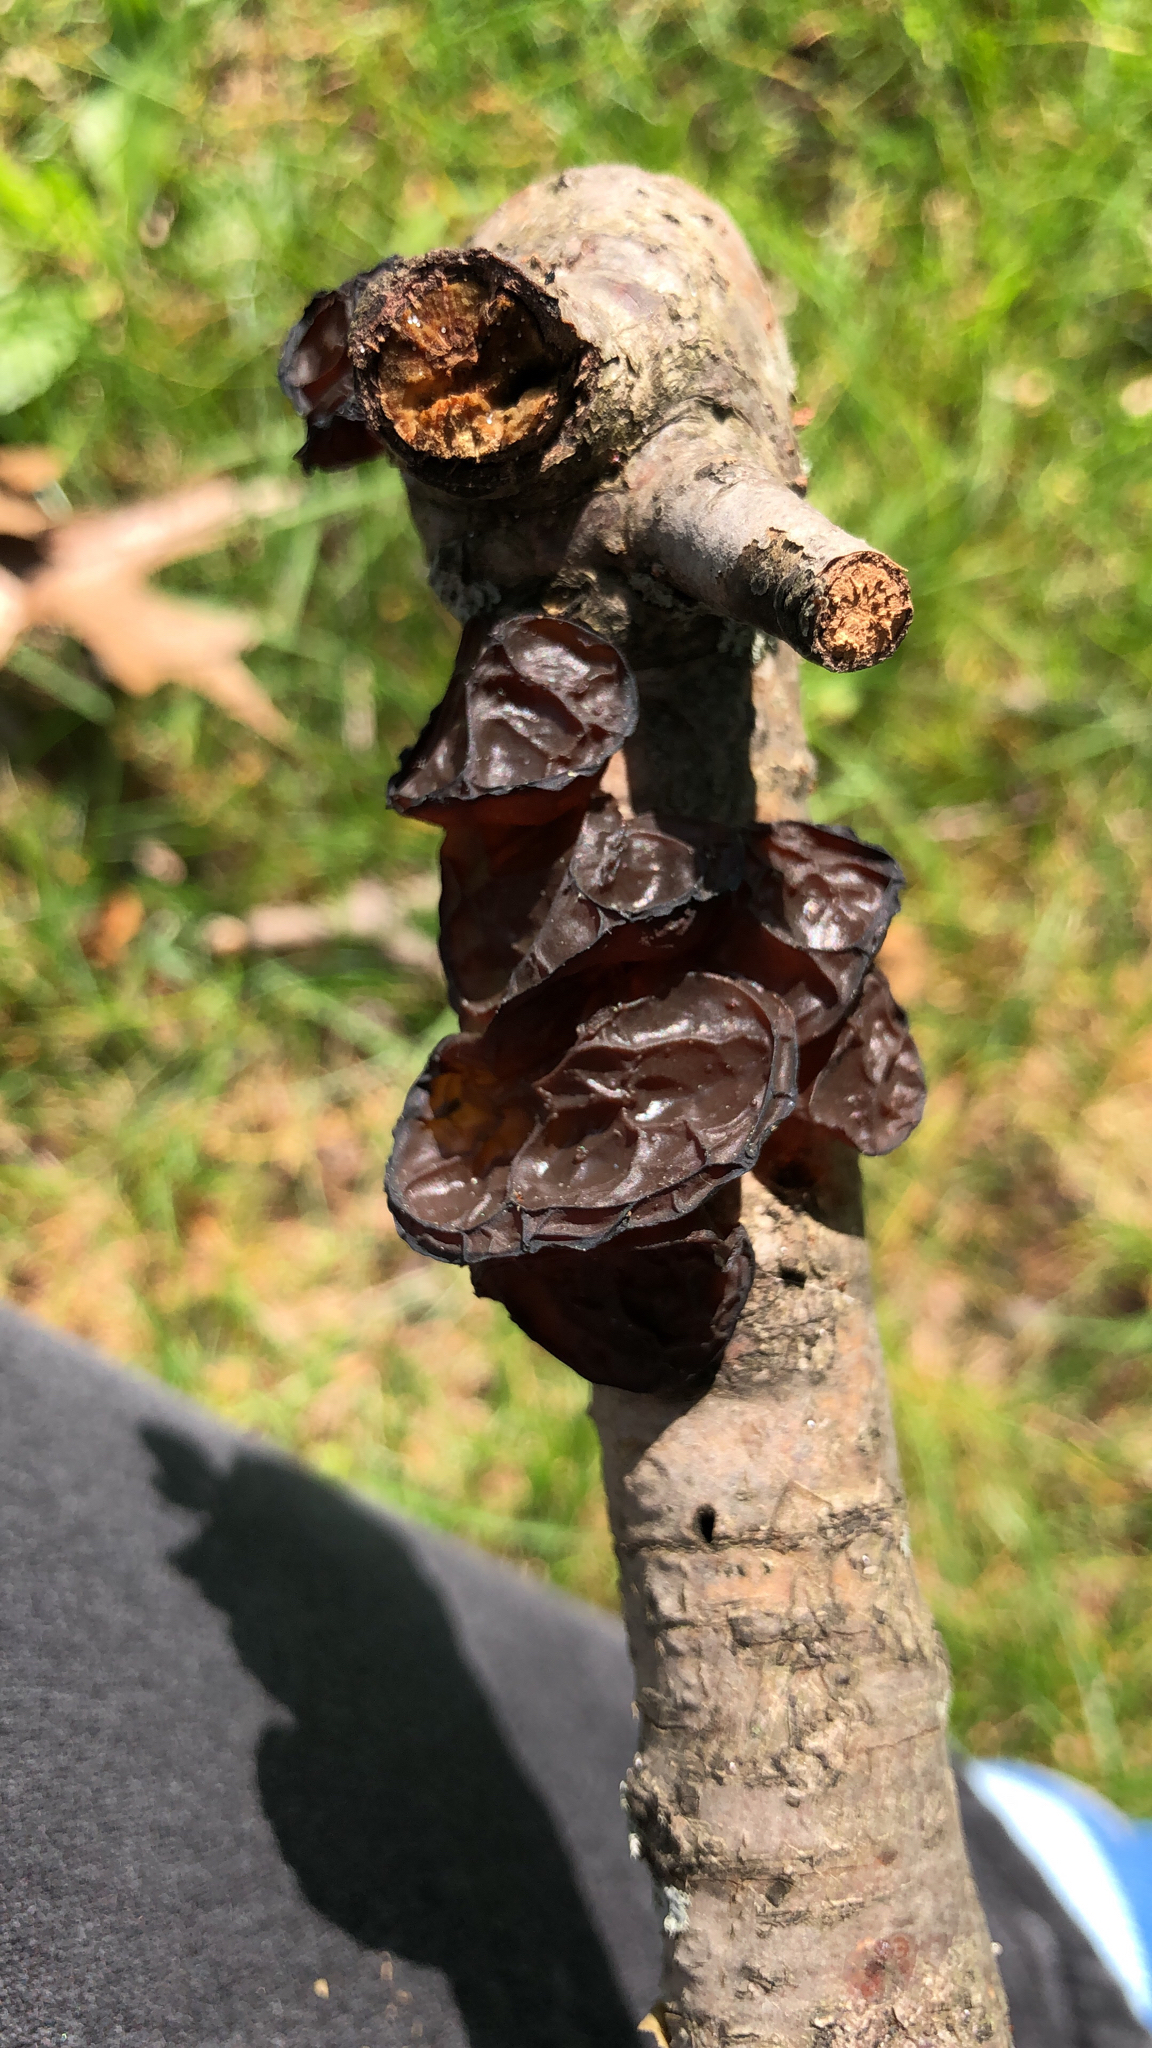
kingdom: Fungi
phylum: Basidiomycota
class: Agaricomycetes
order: Auriculariales
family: Auriculariaceae
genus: Exidia
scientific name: Exidia recisa
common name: Amber jelly
